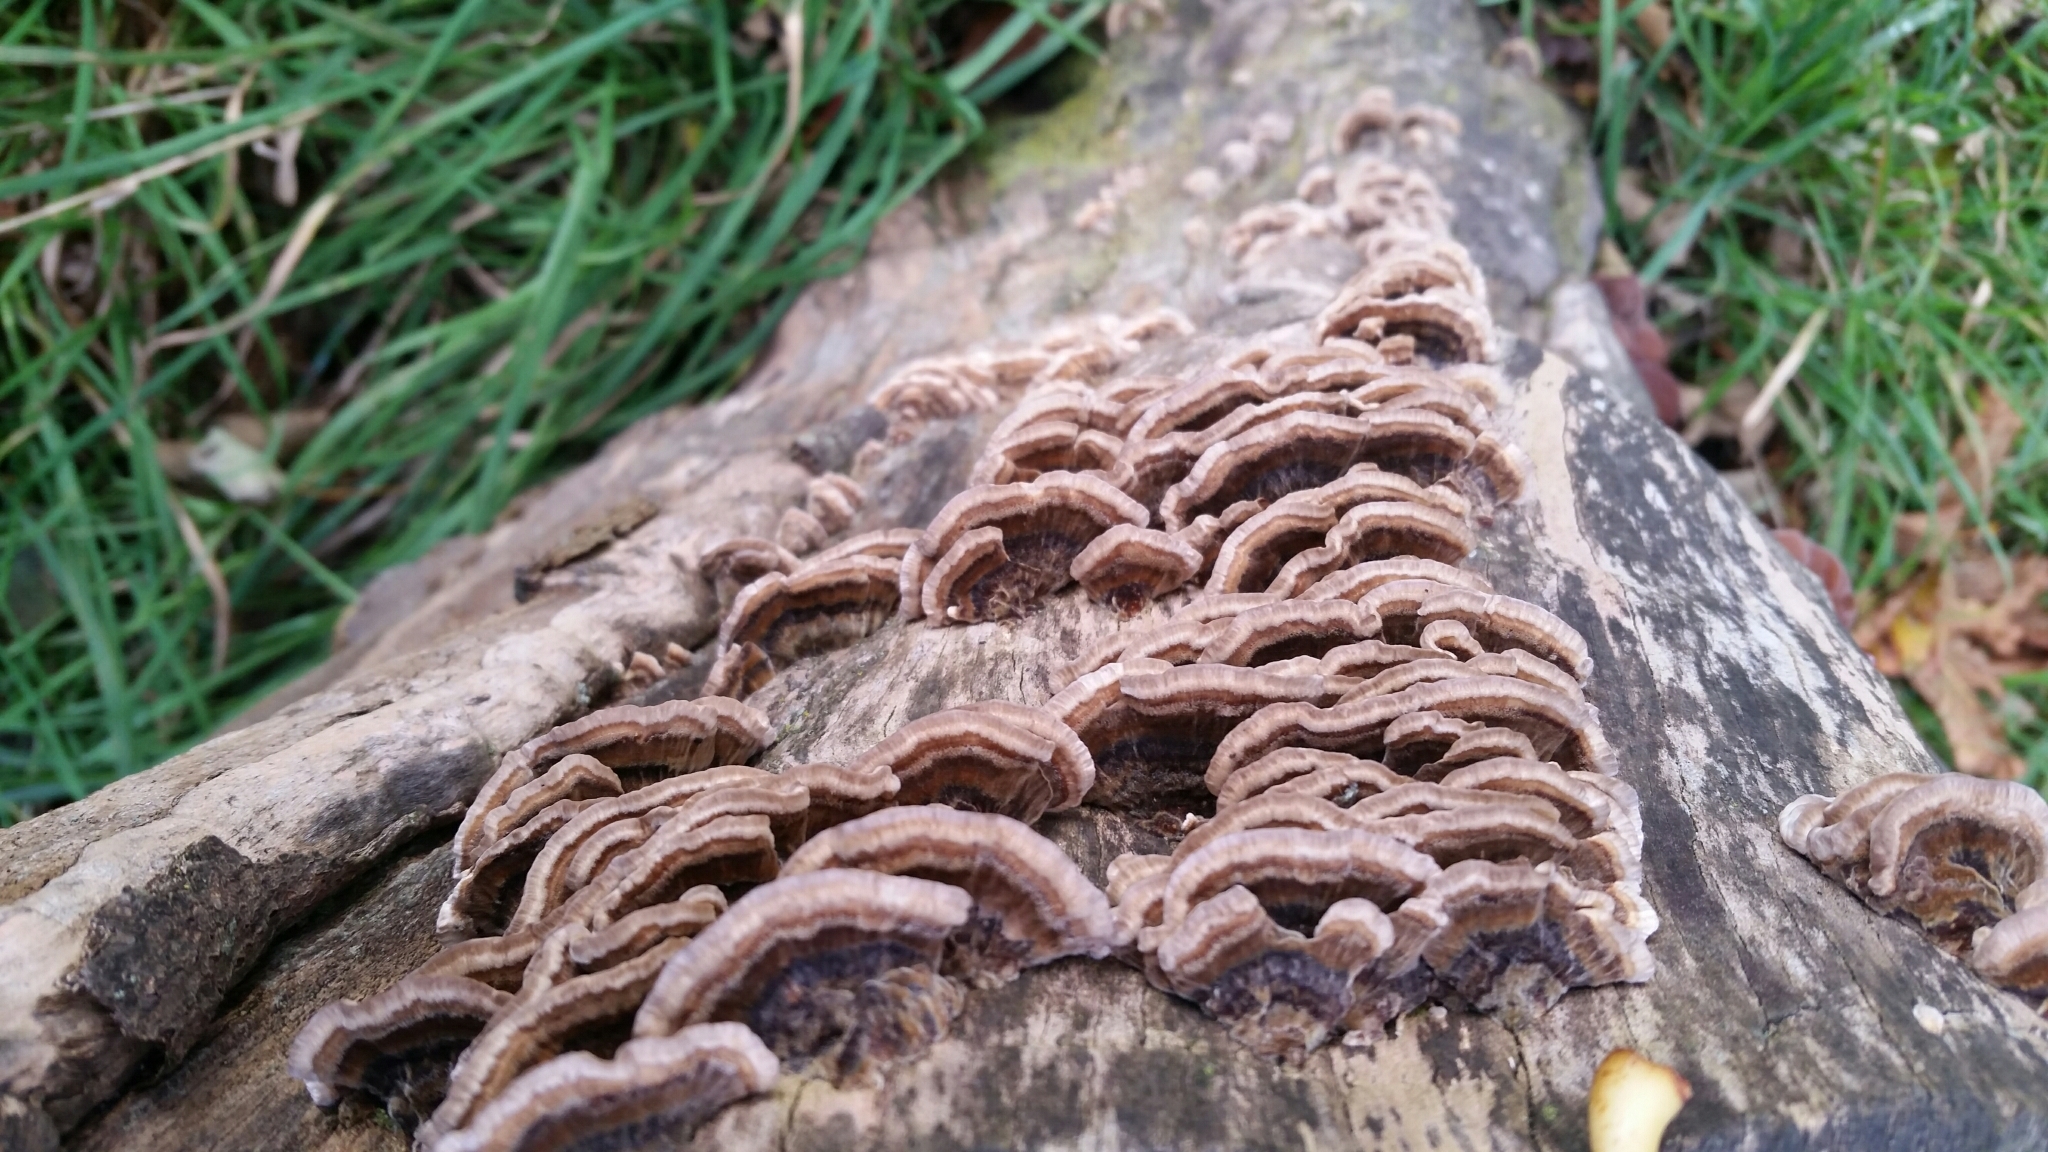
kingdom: Fungi
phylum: Basidiomycota
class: Agaricomycetes
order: Polyporales
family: Polyporaceae
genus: Trametes
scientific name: Trametes versicolor
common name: Turkeytail
